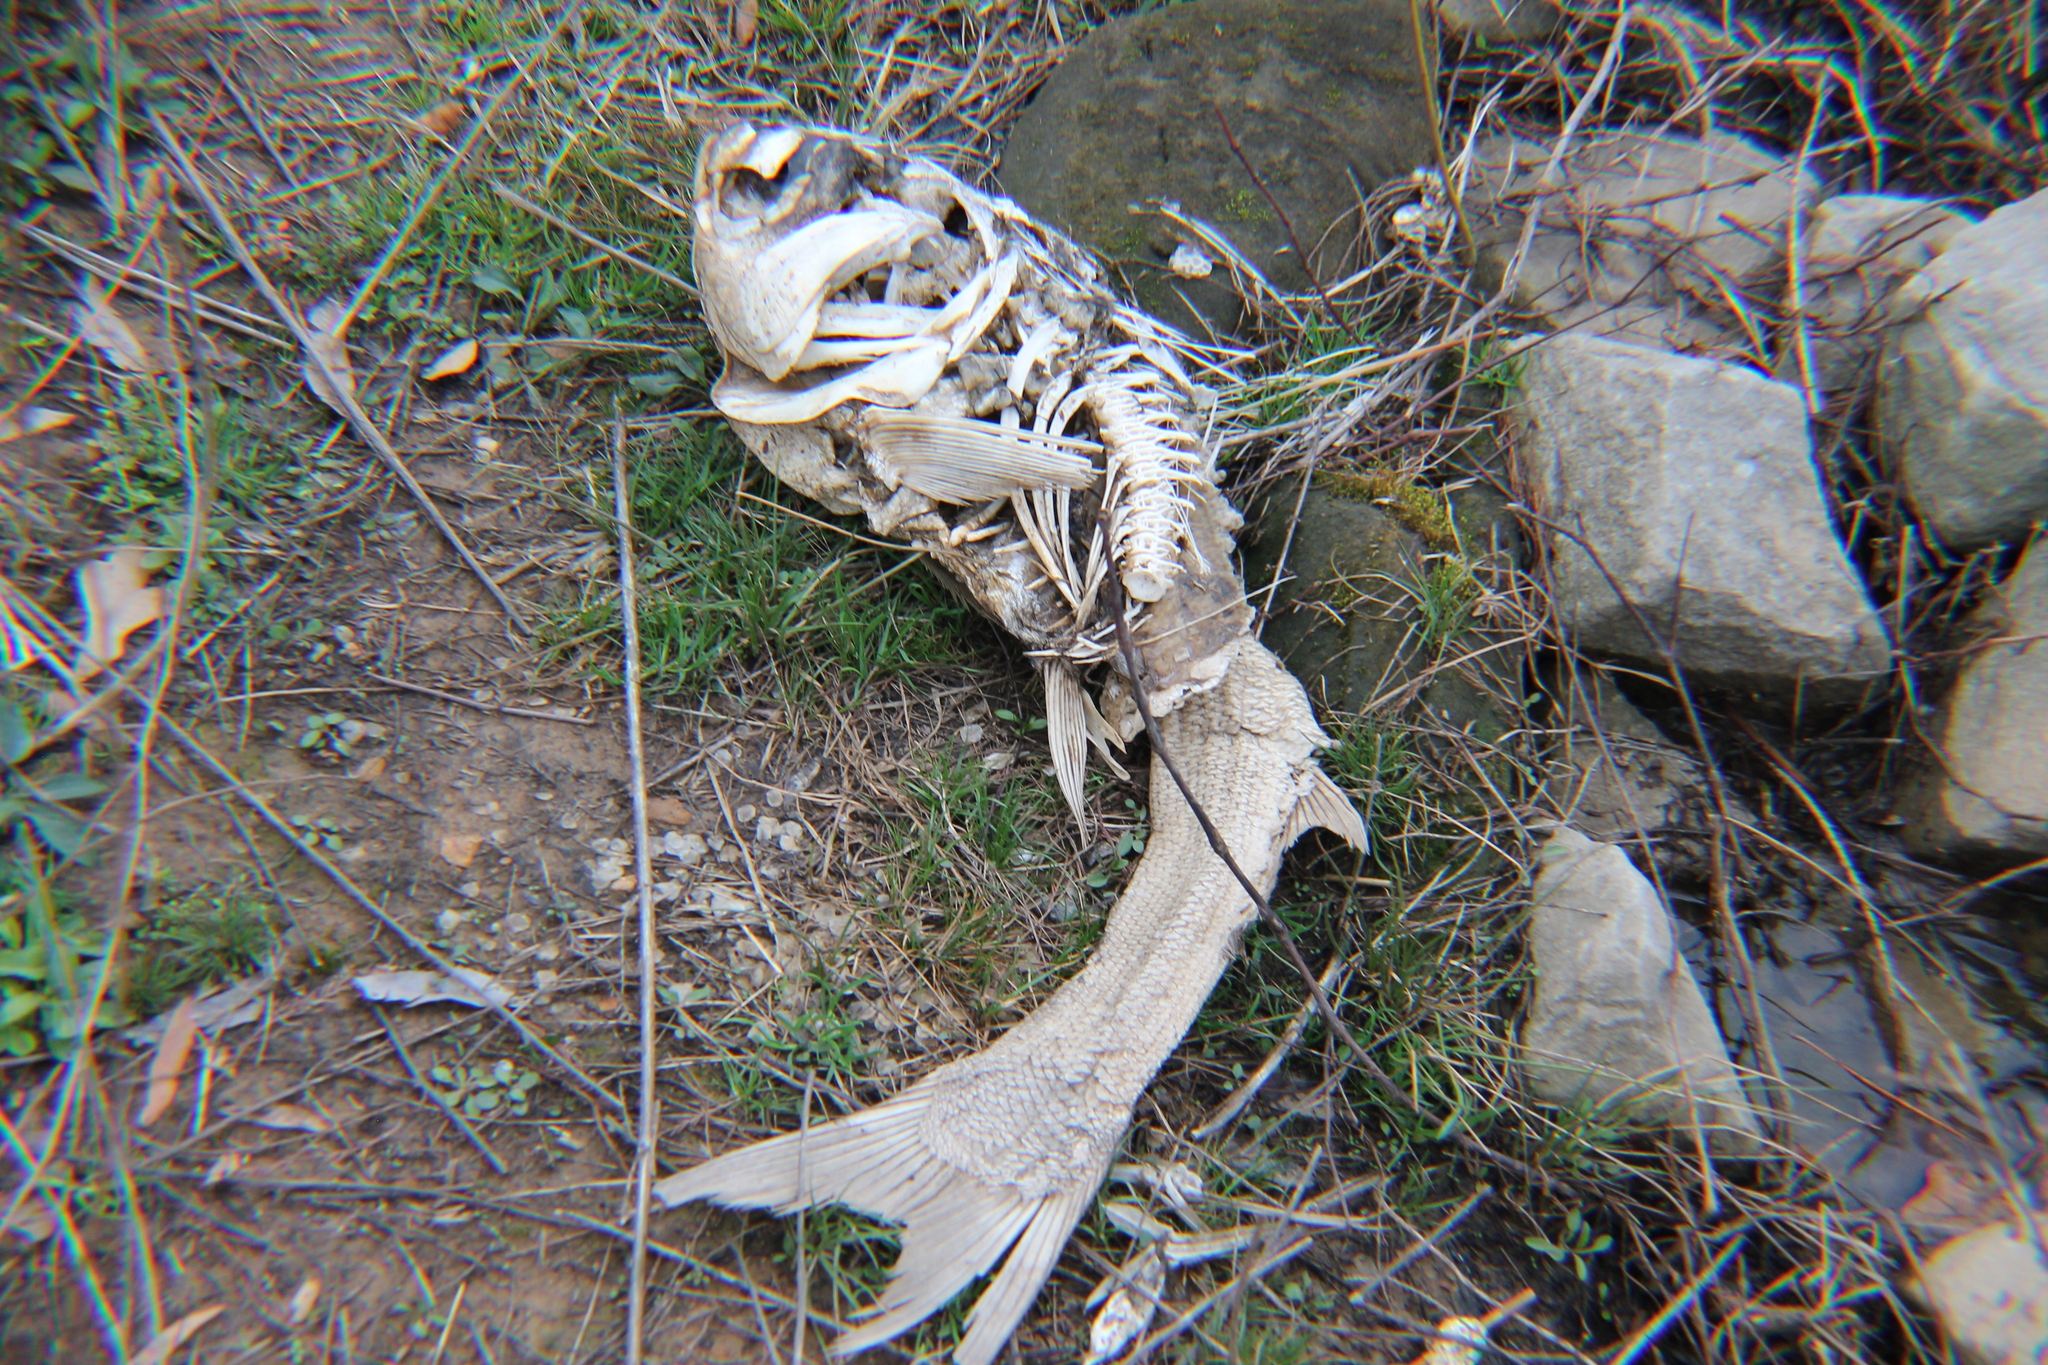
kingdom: Animalia
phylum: Chordata
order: Cypriniformes
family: Cyprinidae
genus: Hypophthalmichthys
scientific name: Hypophthalmichthys molitrix
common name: Silver carp
